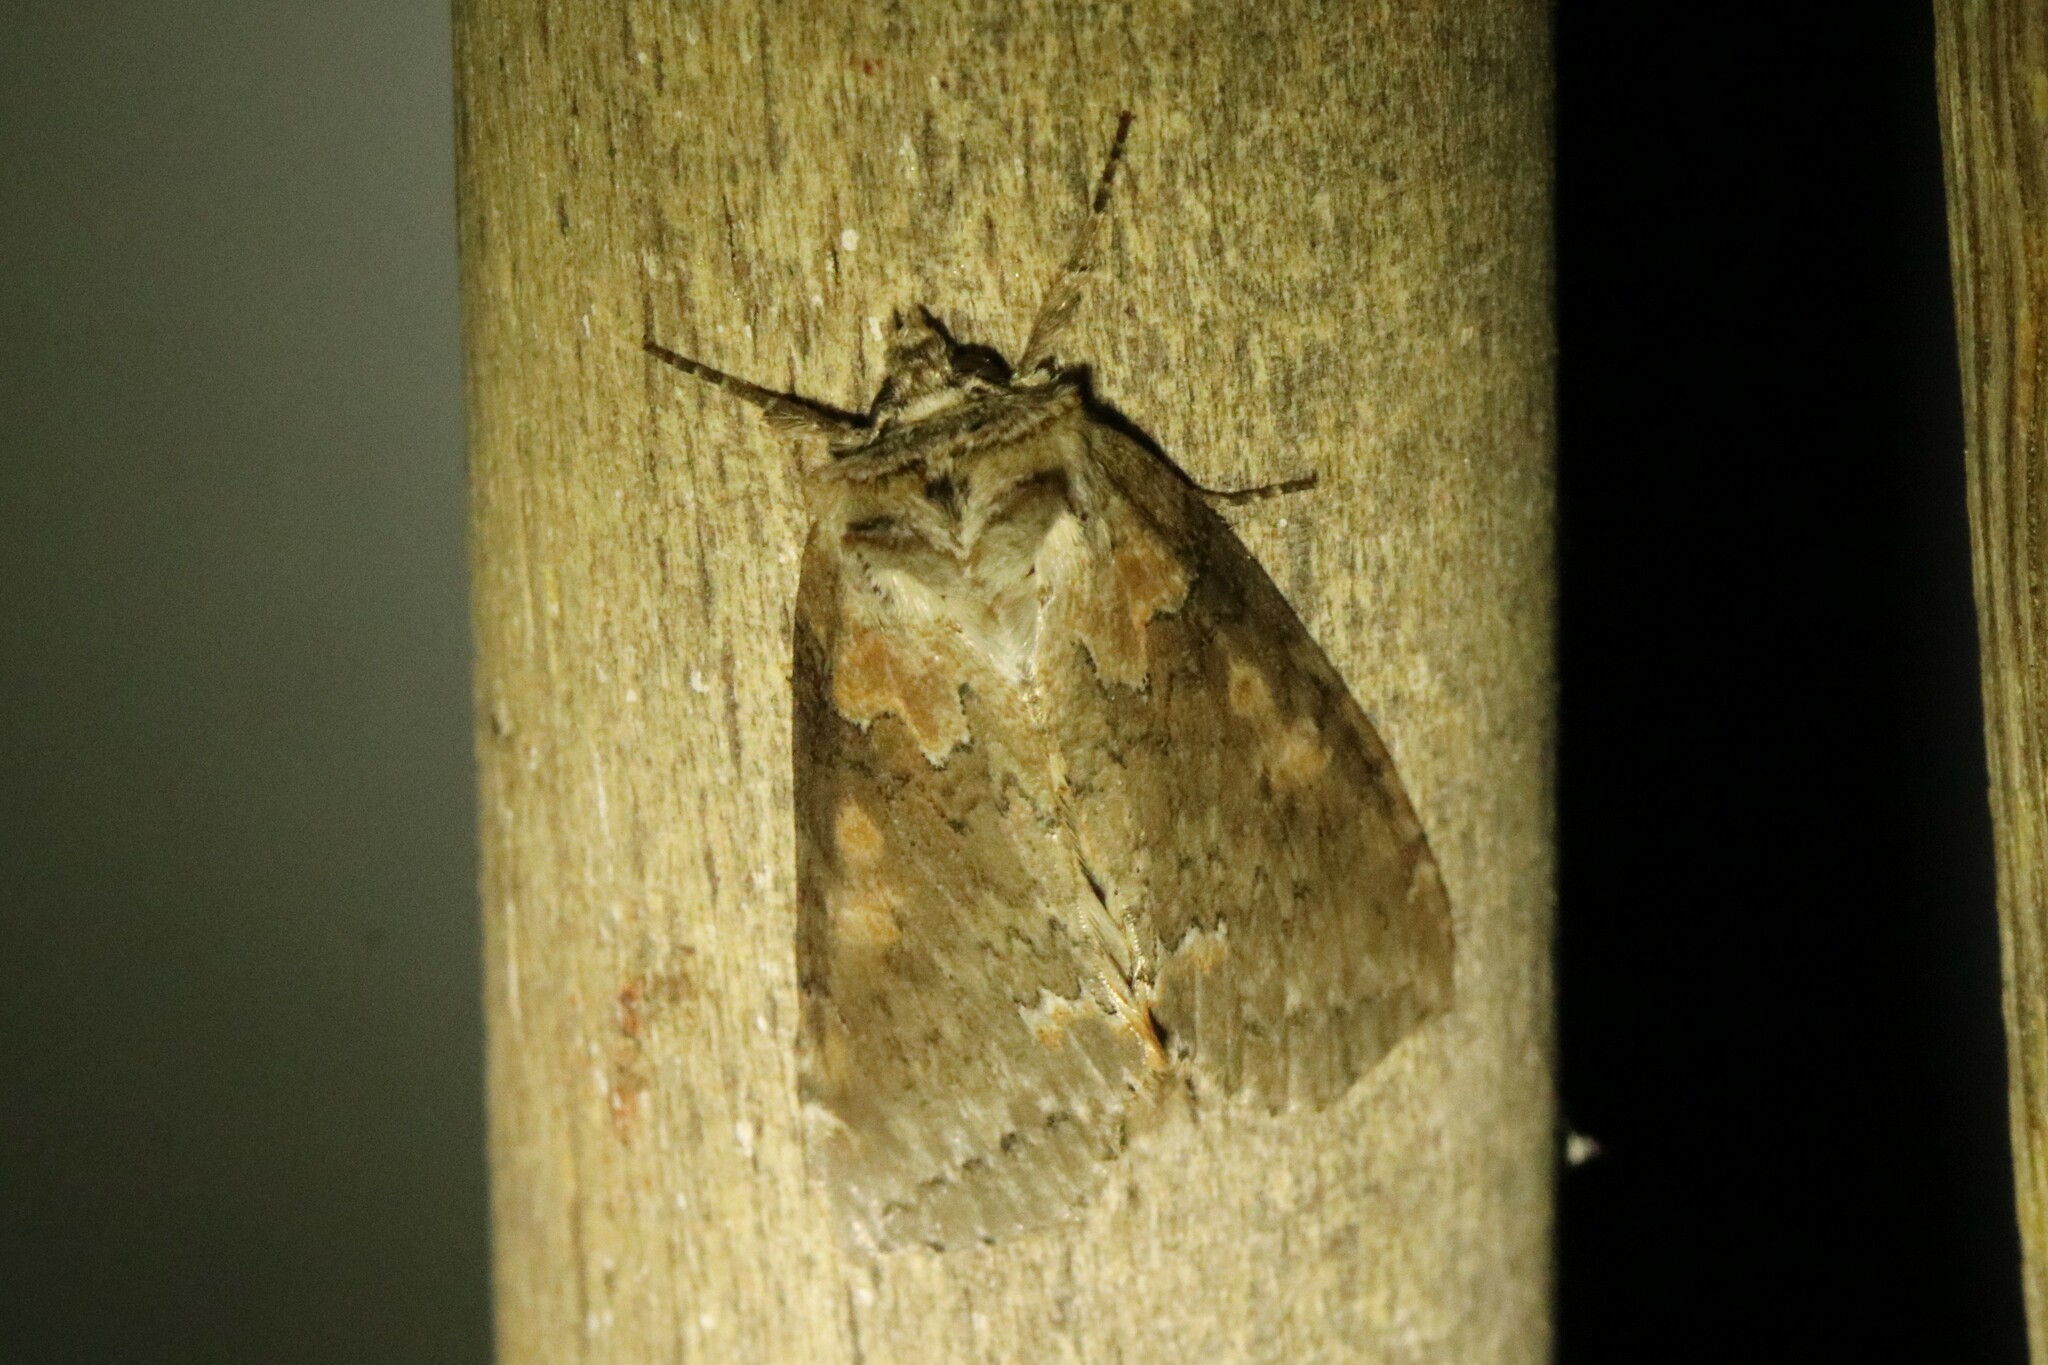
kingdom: Animalia
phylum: Arthropoda
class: Insecta
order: Lepidoptera
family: Drepanidae
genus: Pseudothyatira
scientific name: Pseudothyatira cymatophoroides
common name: Tufted thyatirid moth
